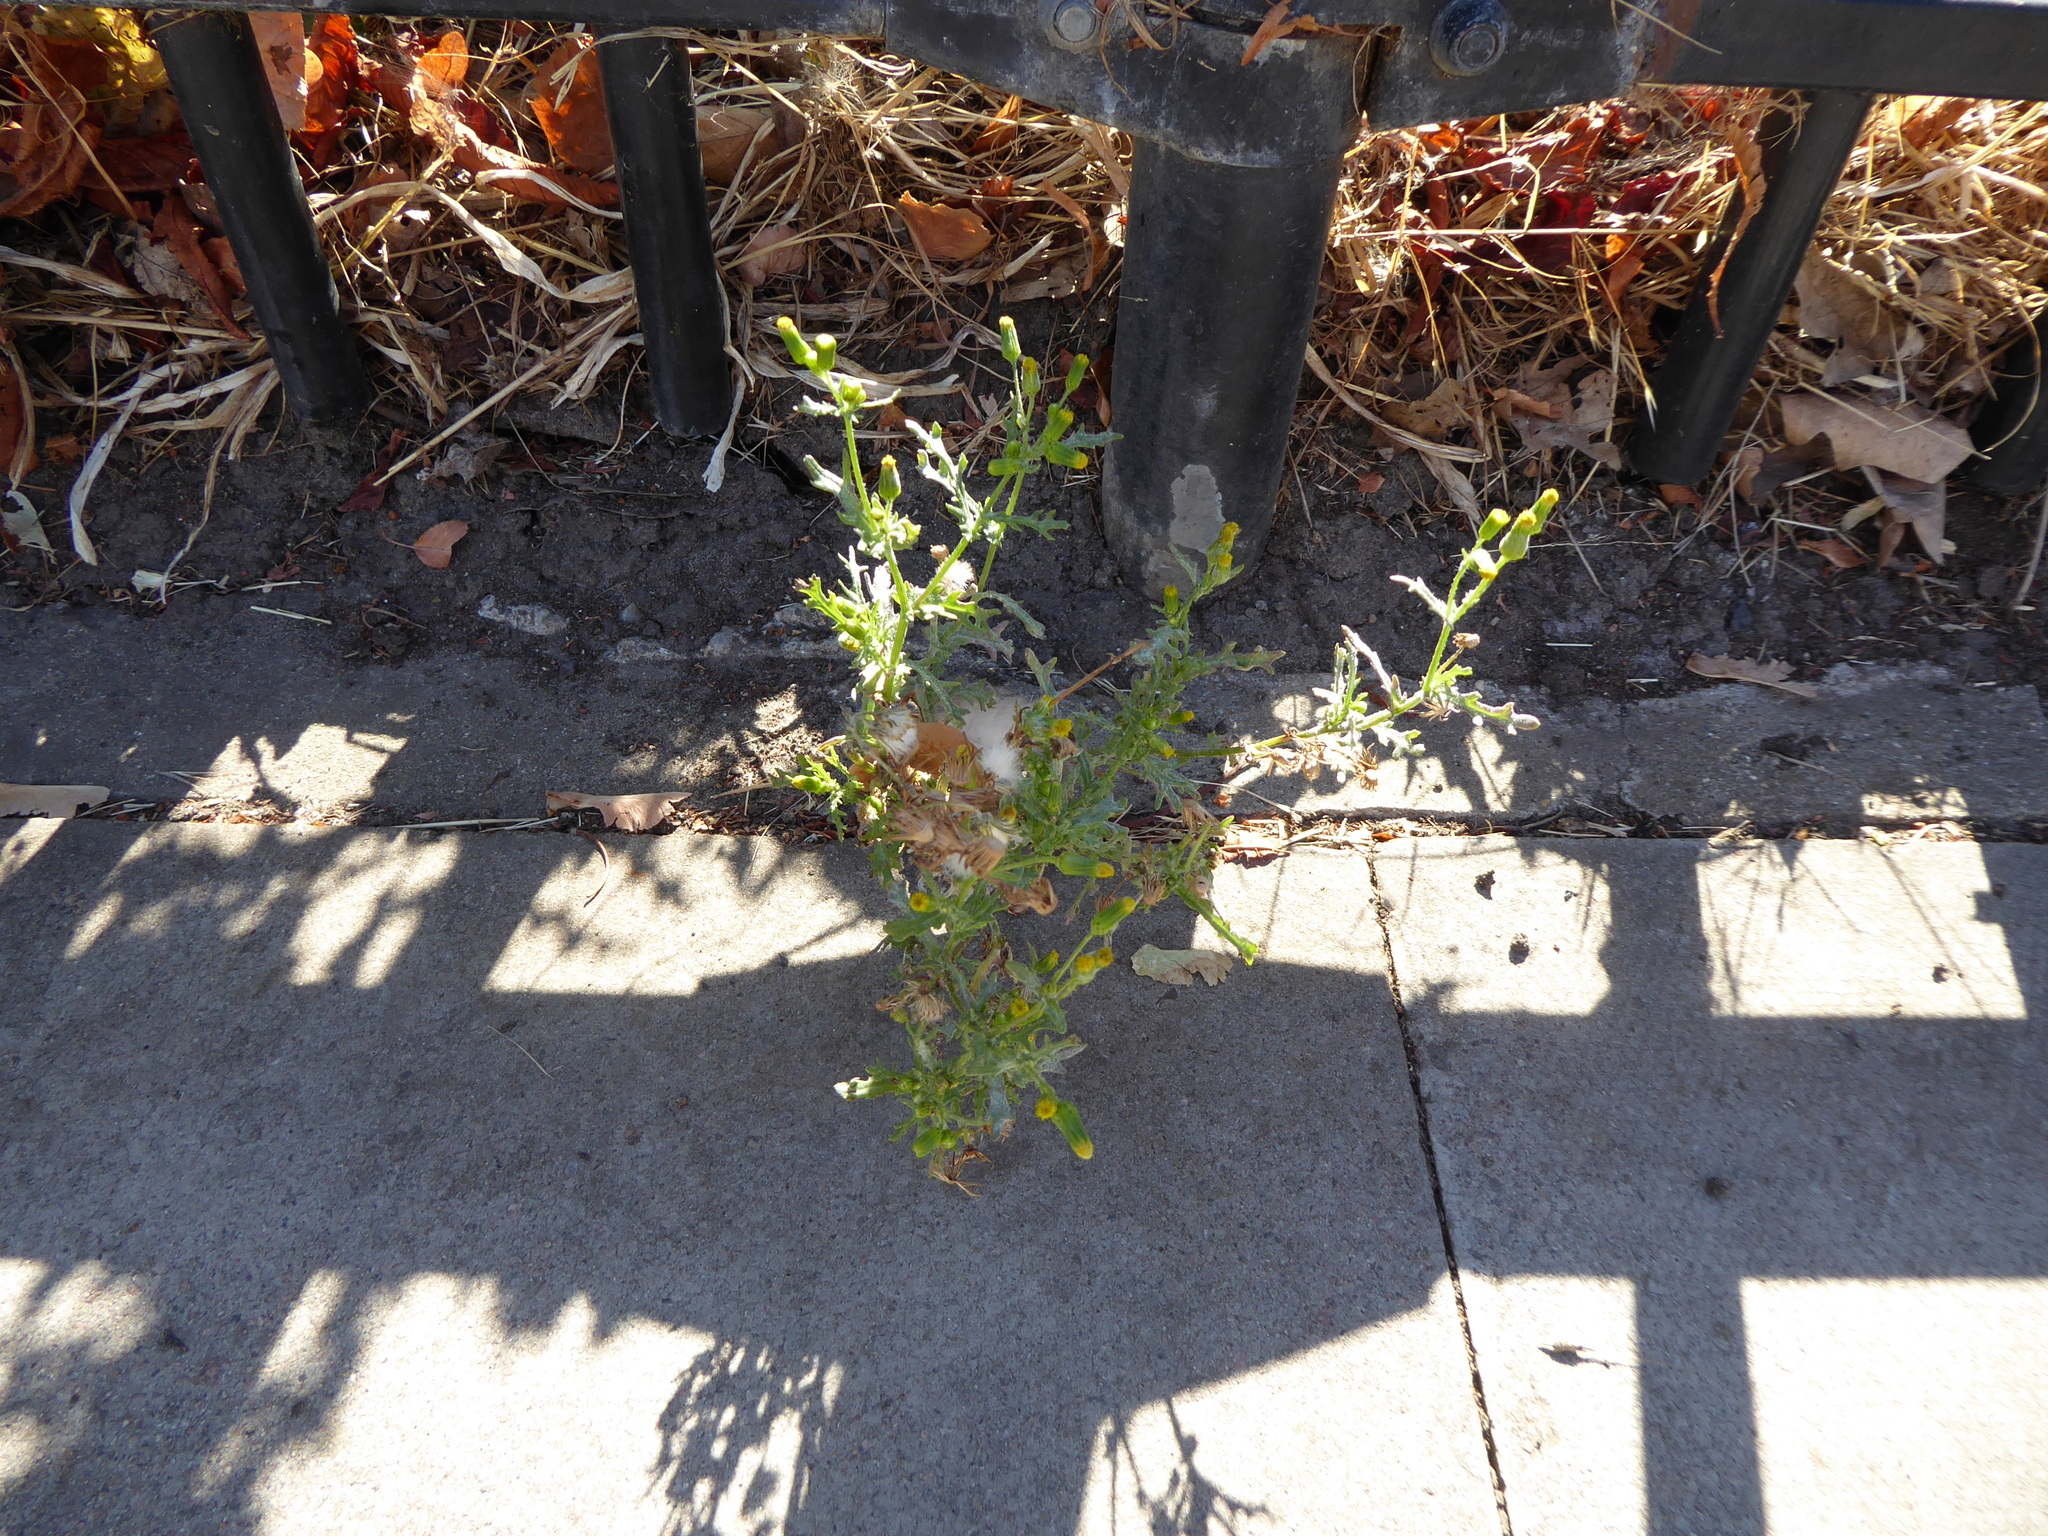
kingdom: Plantae
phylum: Tracheophyta
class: Magnoliopsida
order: Asterales
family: Asteraceae
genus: Senecio
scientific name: Senecio vulgaris
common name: Old-man-in-the-spring
